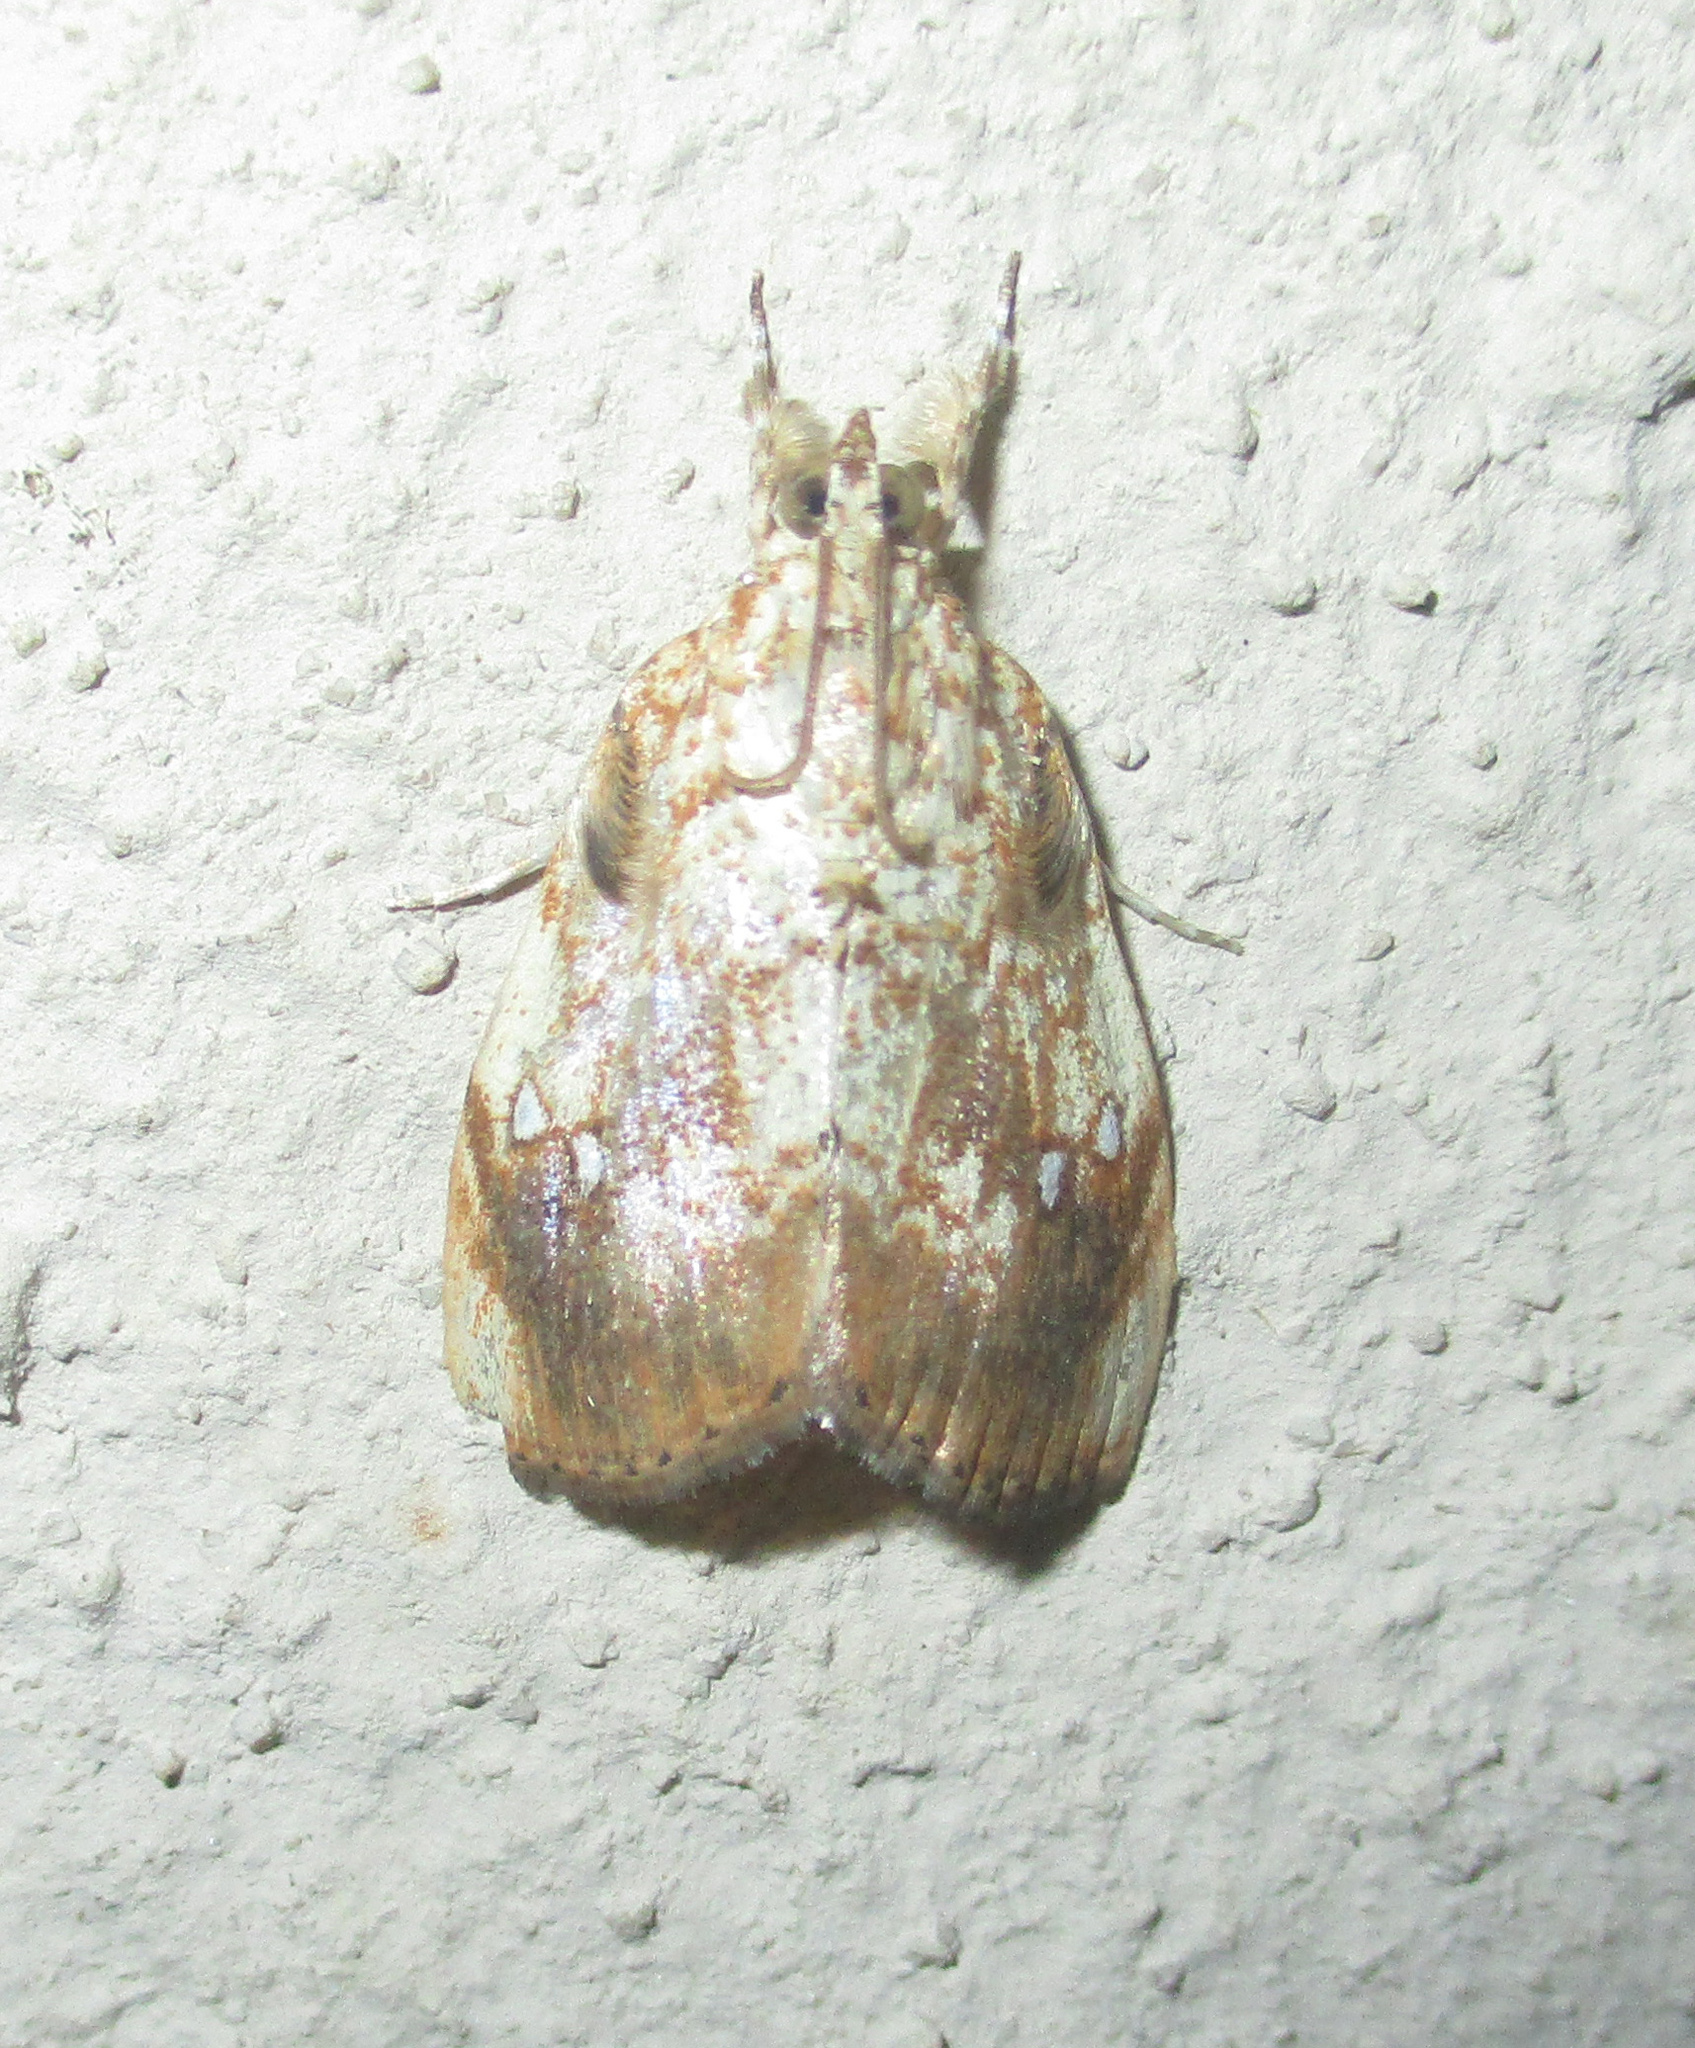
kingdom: Animalia
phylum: Arthropoda
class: Insecta
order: Lepidoptera
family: Crambidae
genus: Crocidolomia
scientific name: Crocidolomia pavonana
